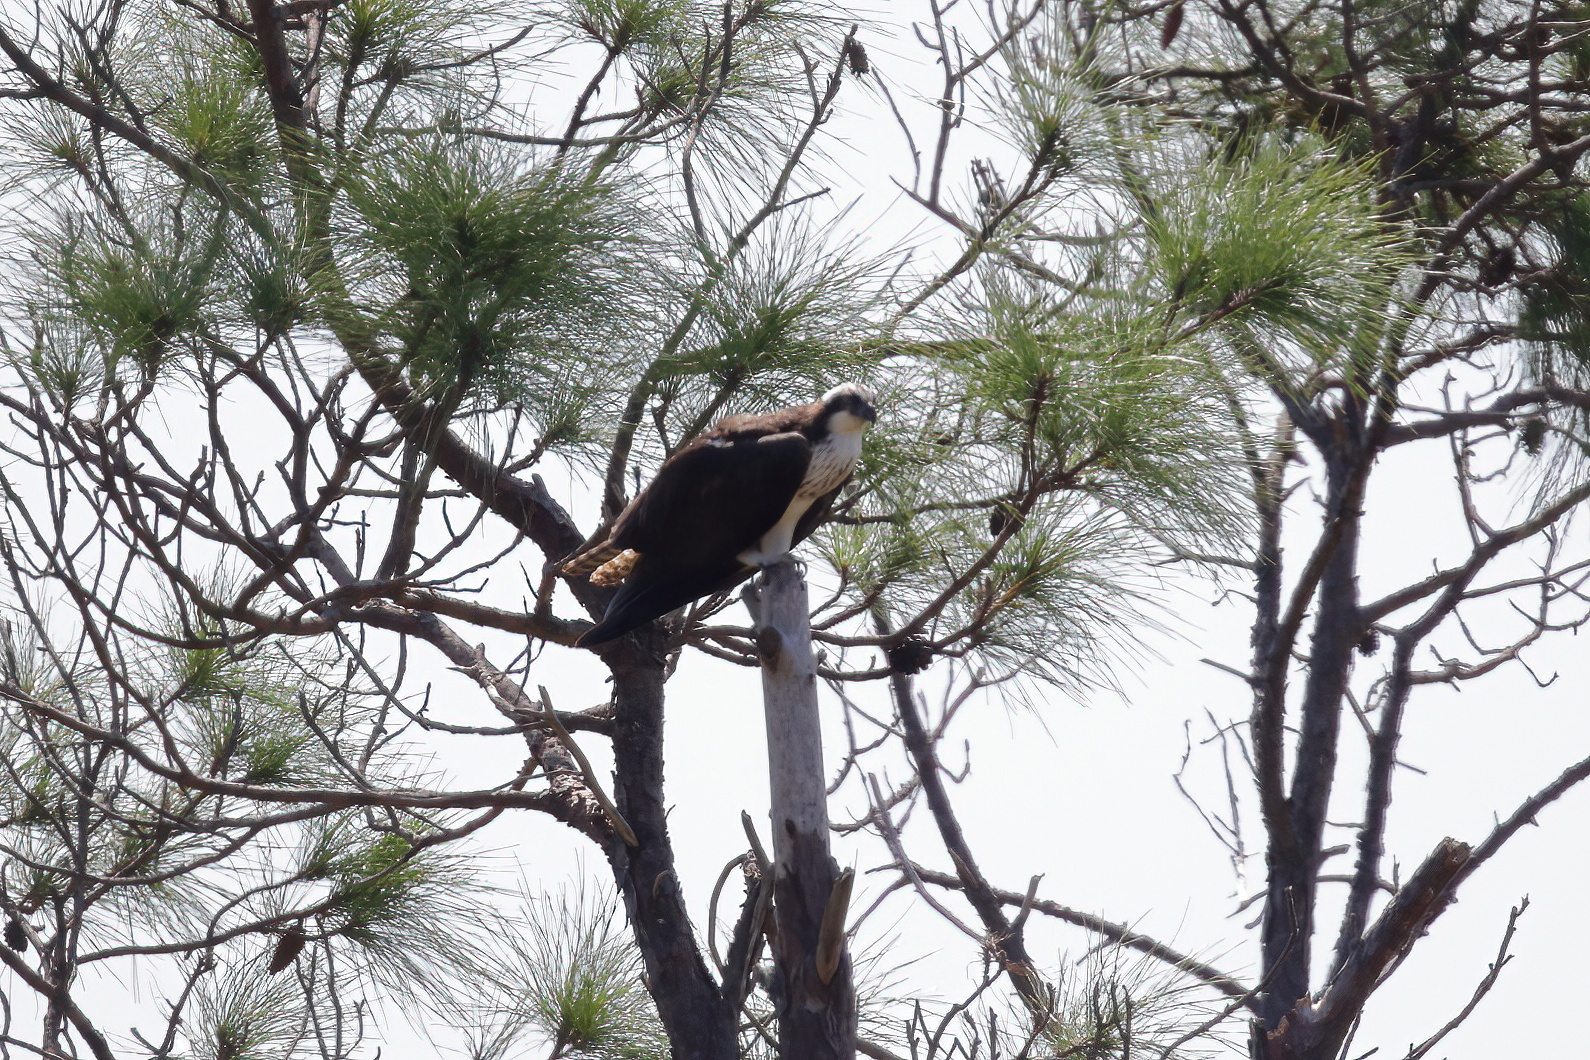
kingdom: Animalia
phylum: Chordata
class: Aves
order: Accipitriformes
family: Pandionidae
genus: Pandion
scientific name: Pandion haliaetus
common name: Osprey
